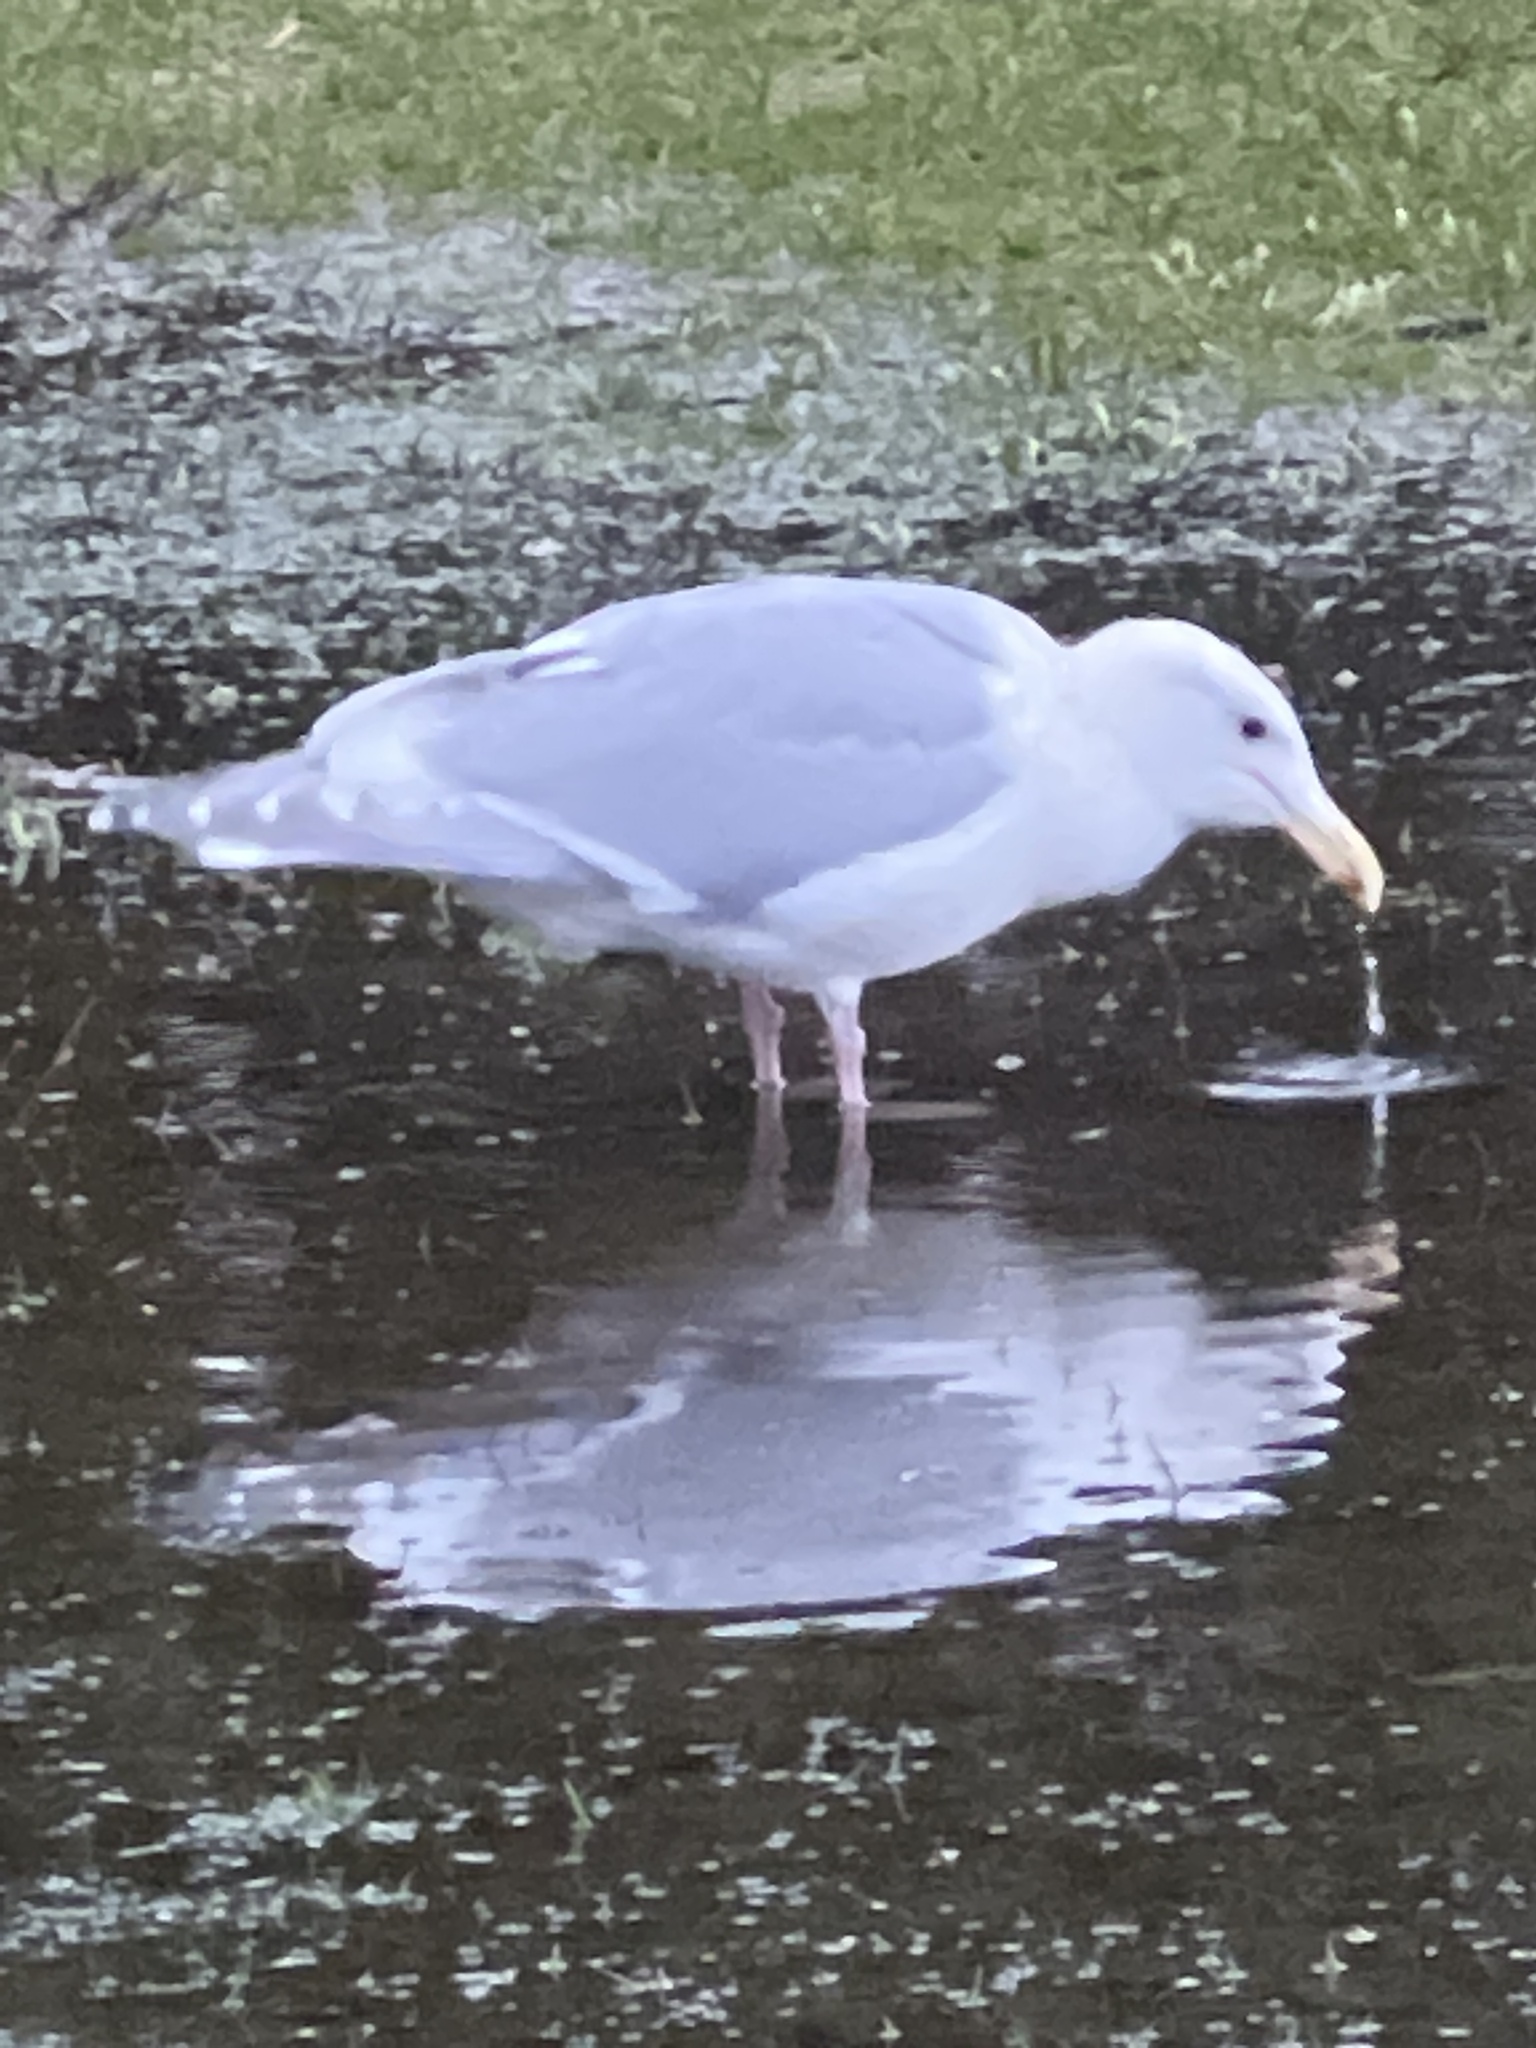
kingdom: Animalia
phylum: Chordata
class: Aves
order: Charadriiformes
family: Laridae
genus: Larus
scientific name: Larus glaucescens
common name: Glaucous-winged gull
